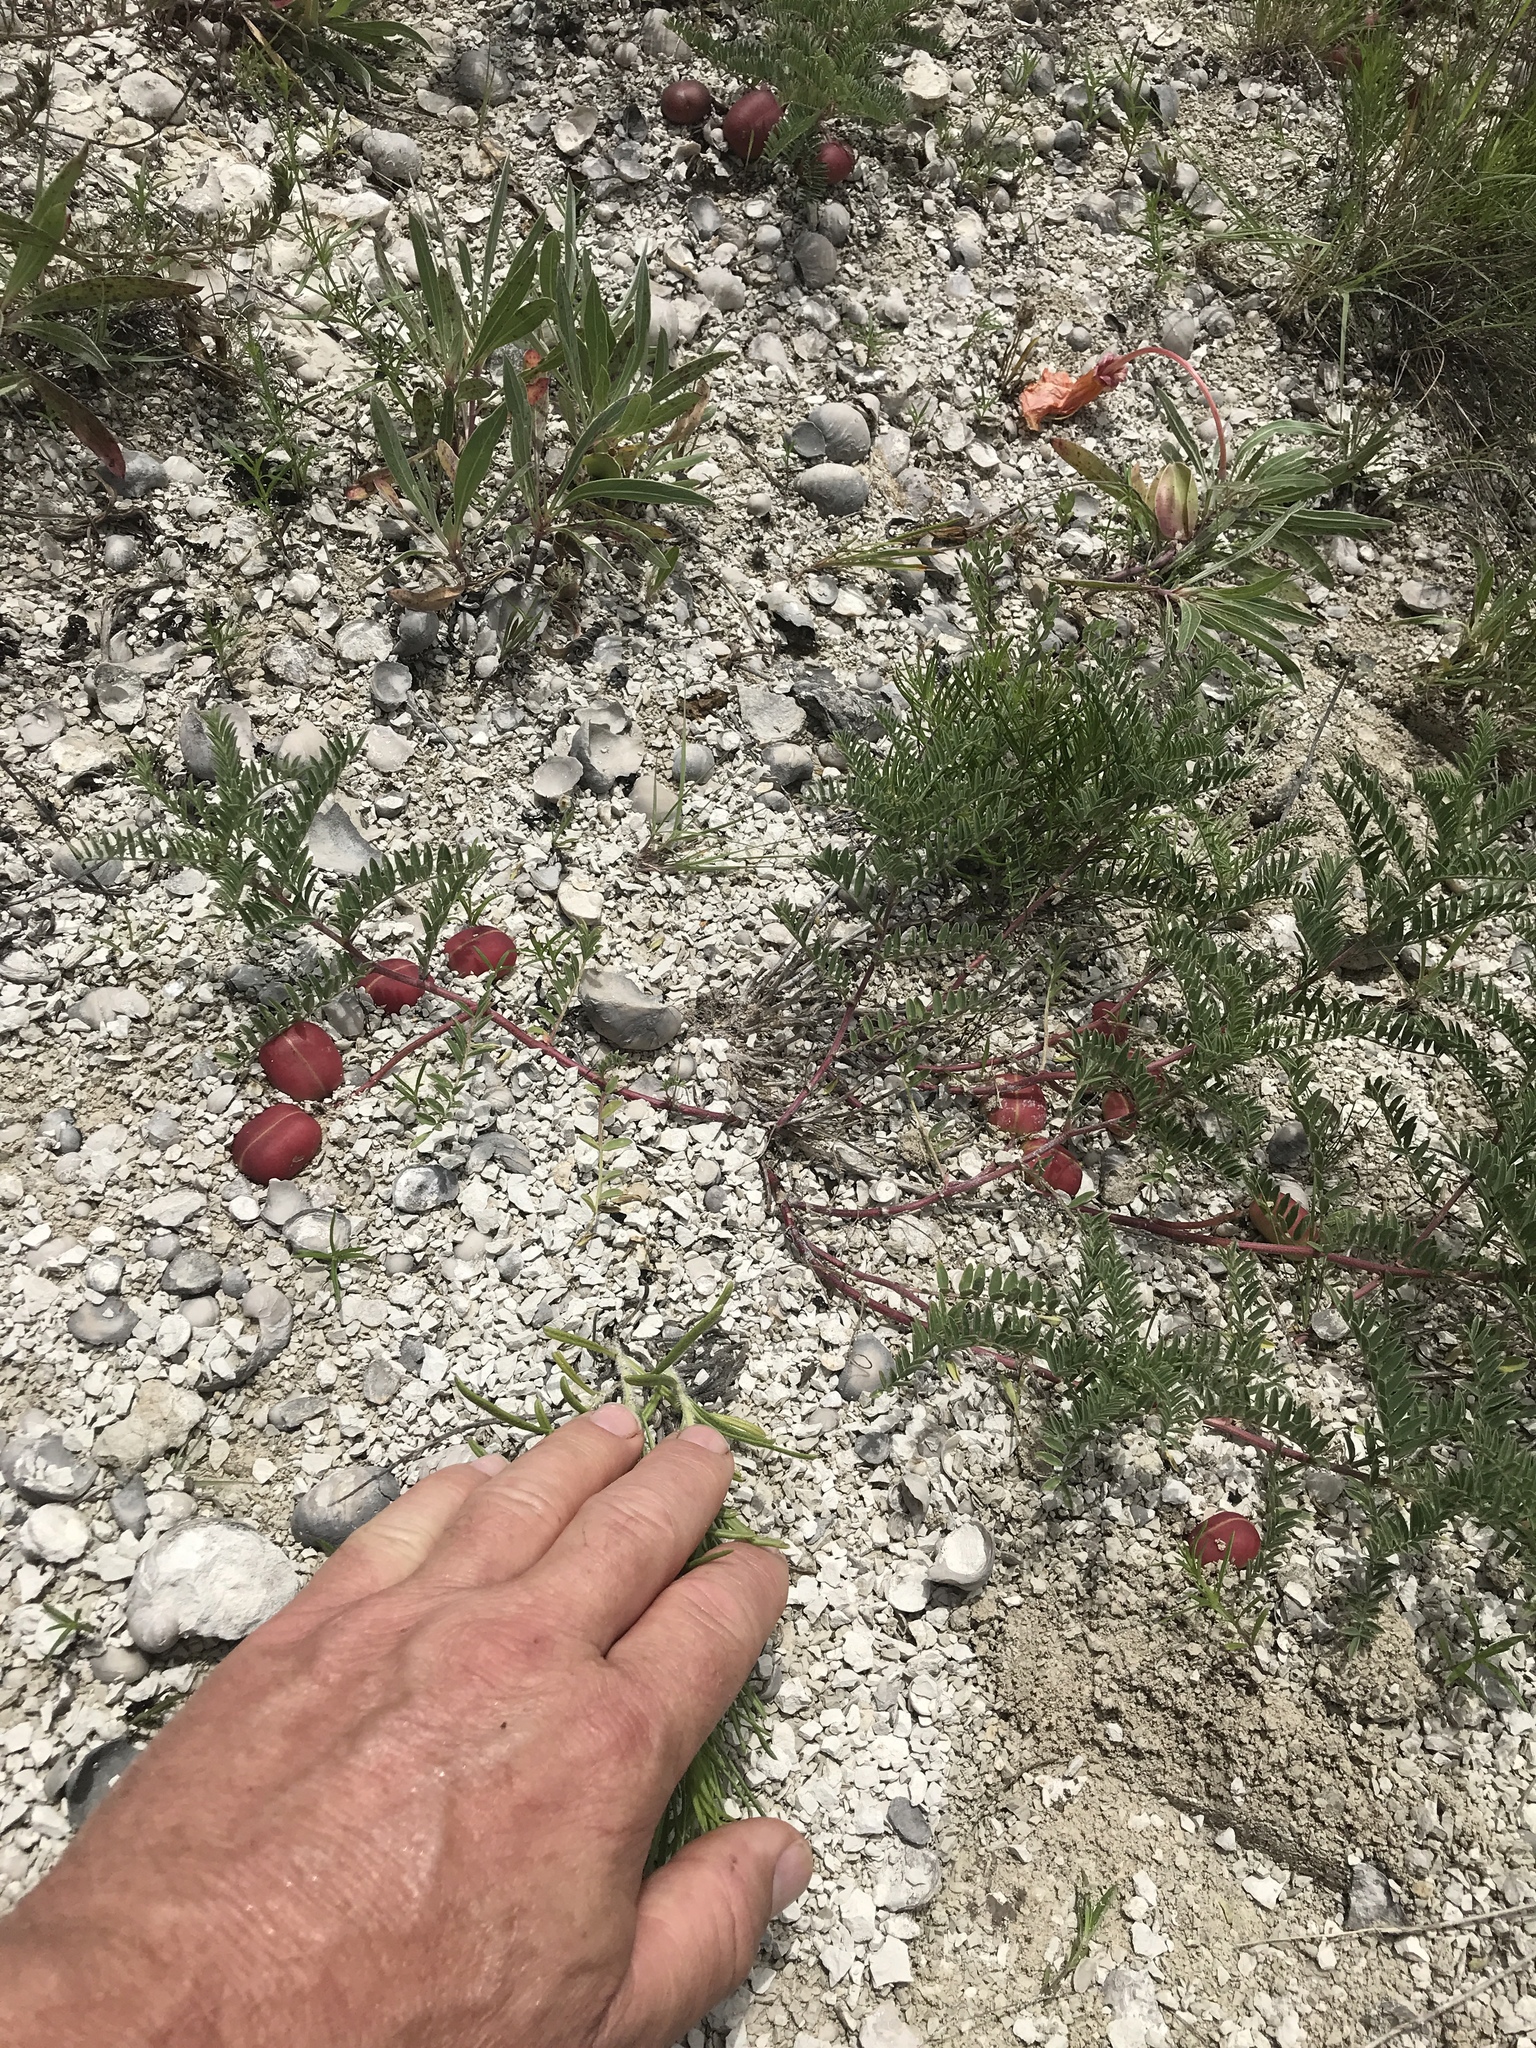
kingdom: Plantae
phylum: Tracheophyta
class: Magnoliopsida
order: Fabales
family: Fabaceae
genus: Astragalus
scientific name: Astragalus crassicarpus
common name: Ground-plum milk-vetch
